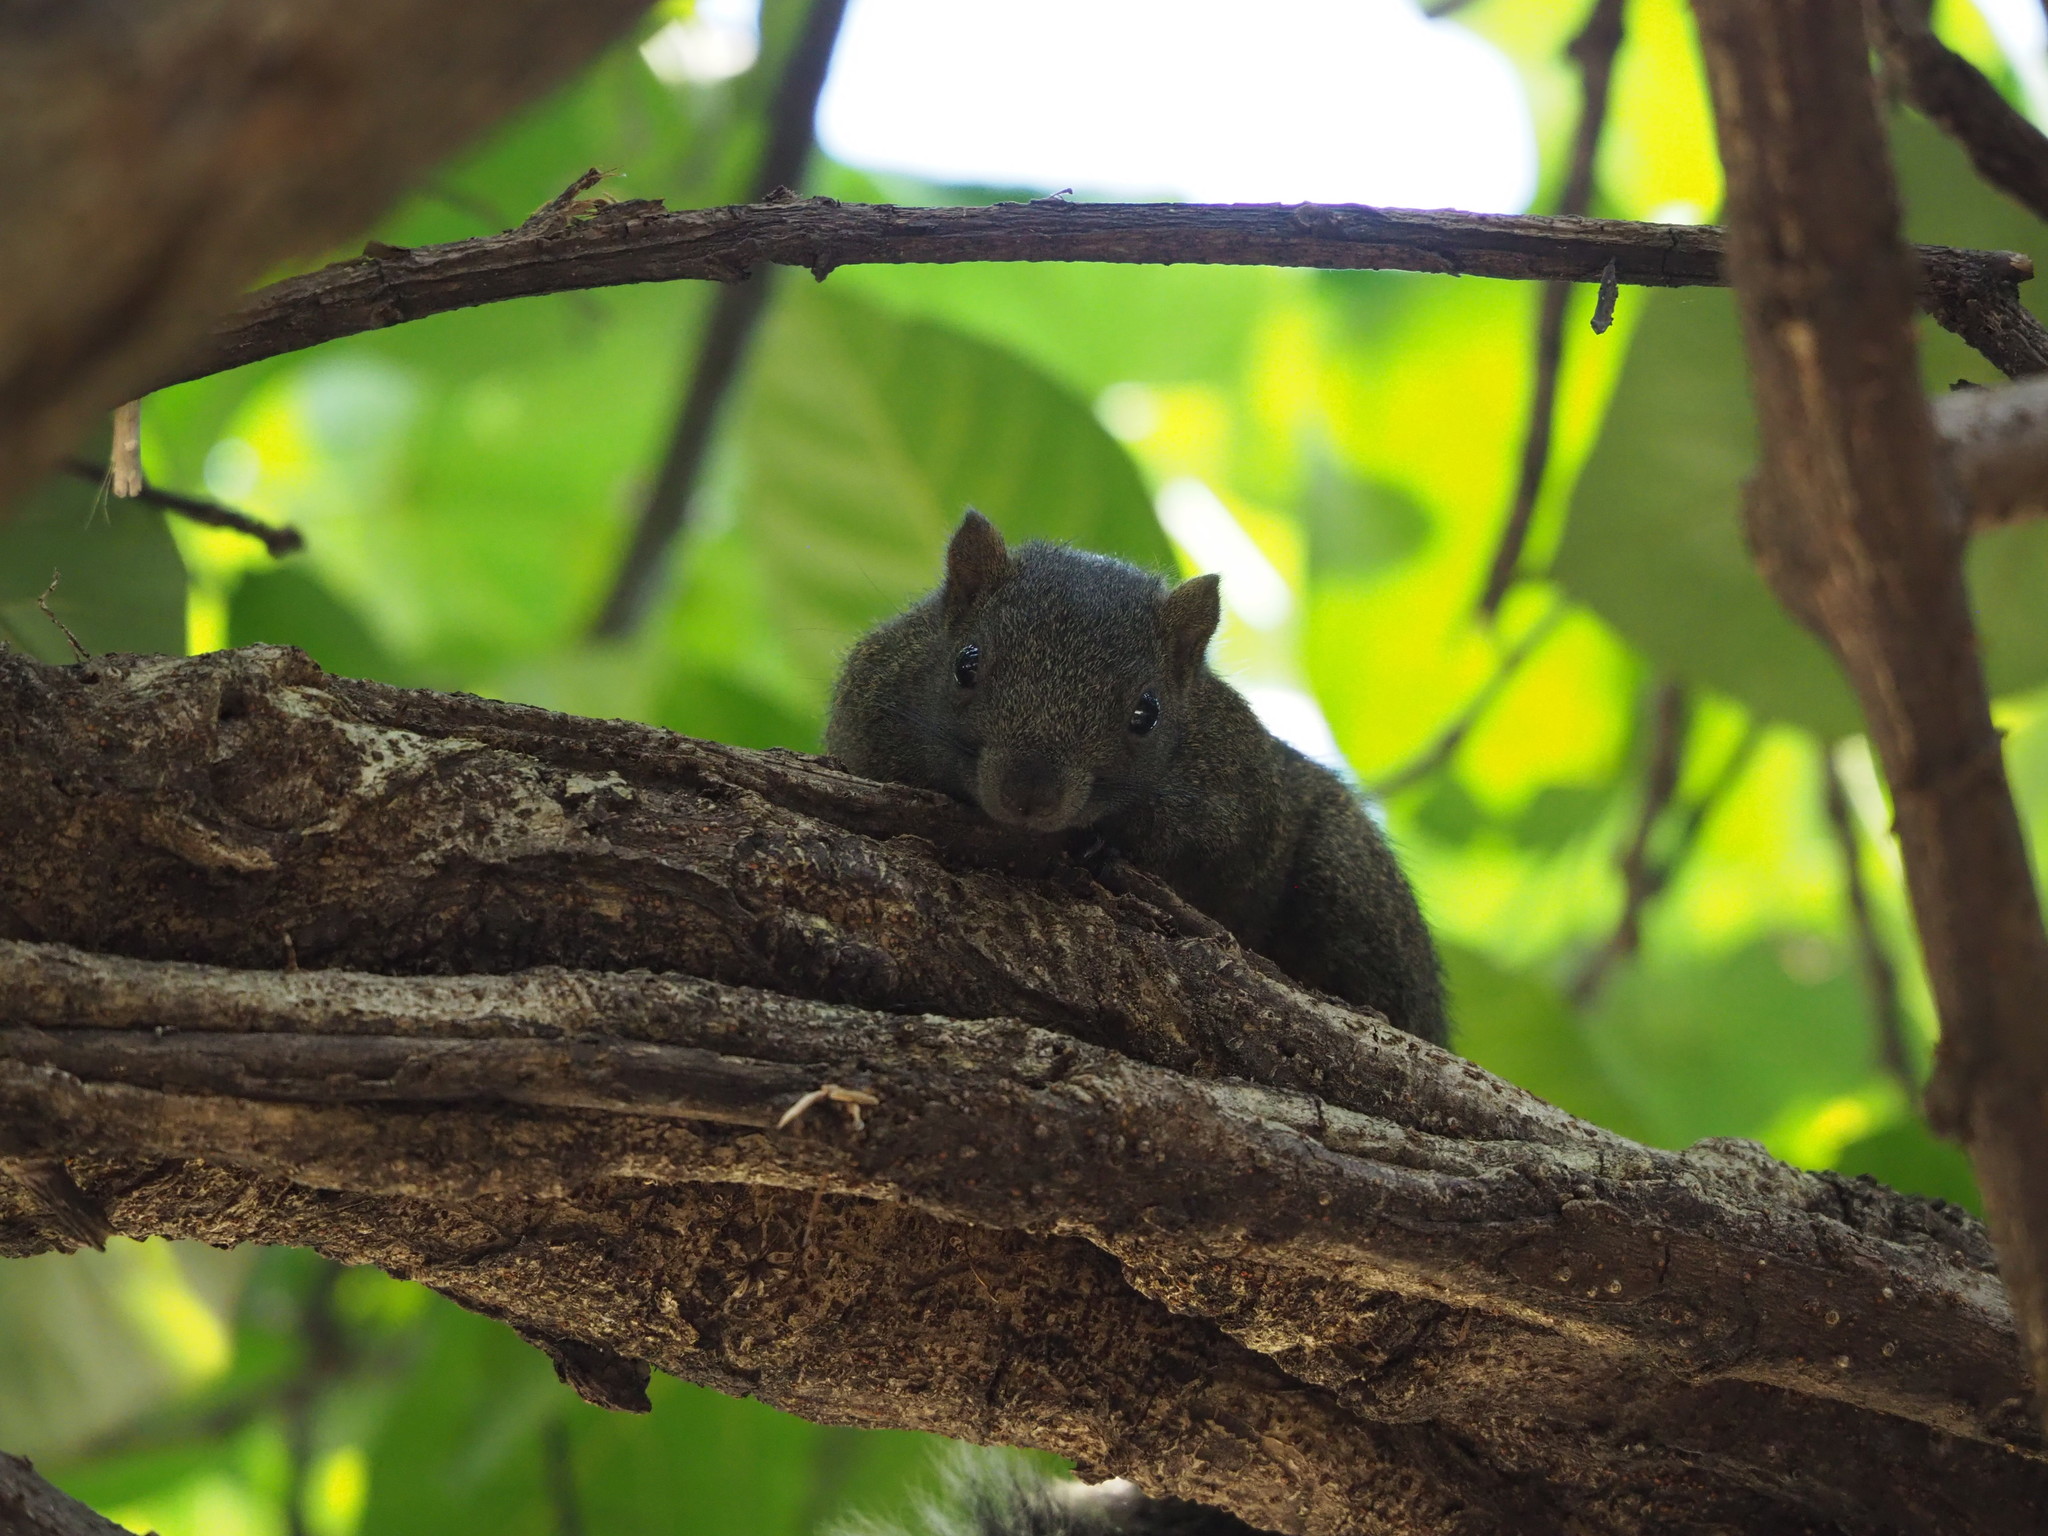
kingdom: Animalia
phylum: Chordata
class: Mammalia
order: Rodentia
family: Sciuridae
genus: Callosciurus
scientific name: Callosciurus erythraeus
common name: Pallas's squirrel
